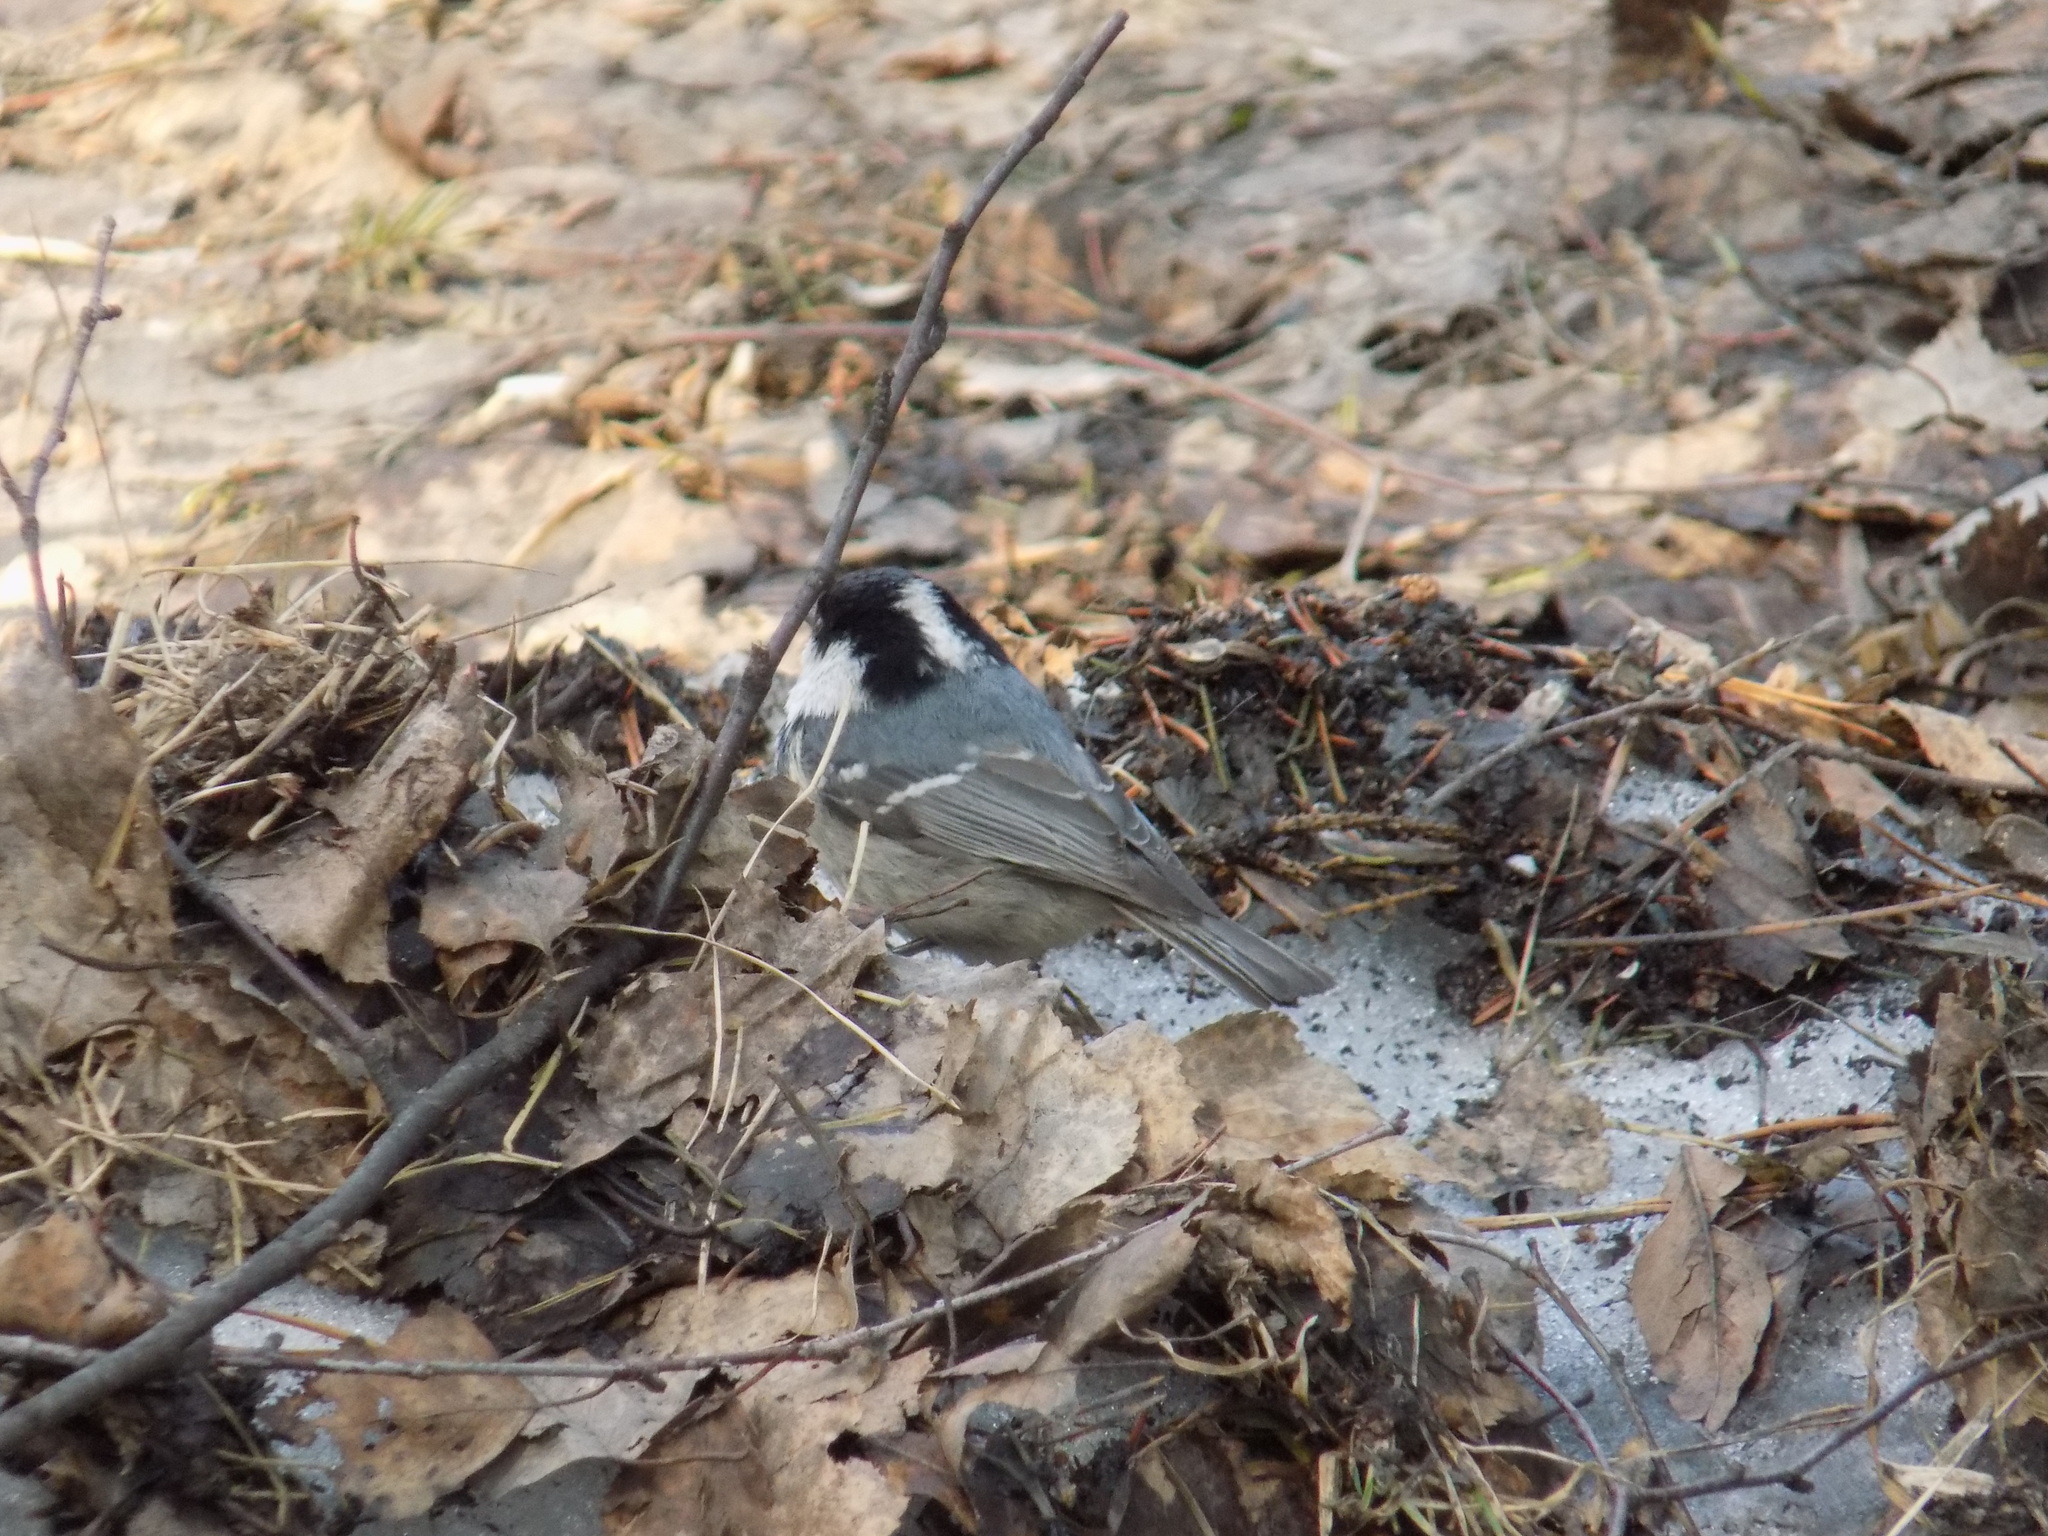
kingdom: Animalia
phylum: Chordata
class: Aves
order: Passeriformes
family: Paridae
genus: Periparus
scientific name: Periparus ater
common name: Coal tit
